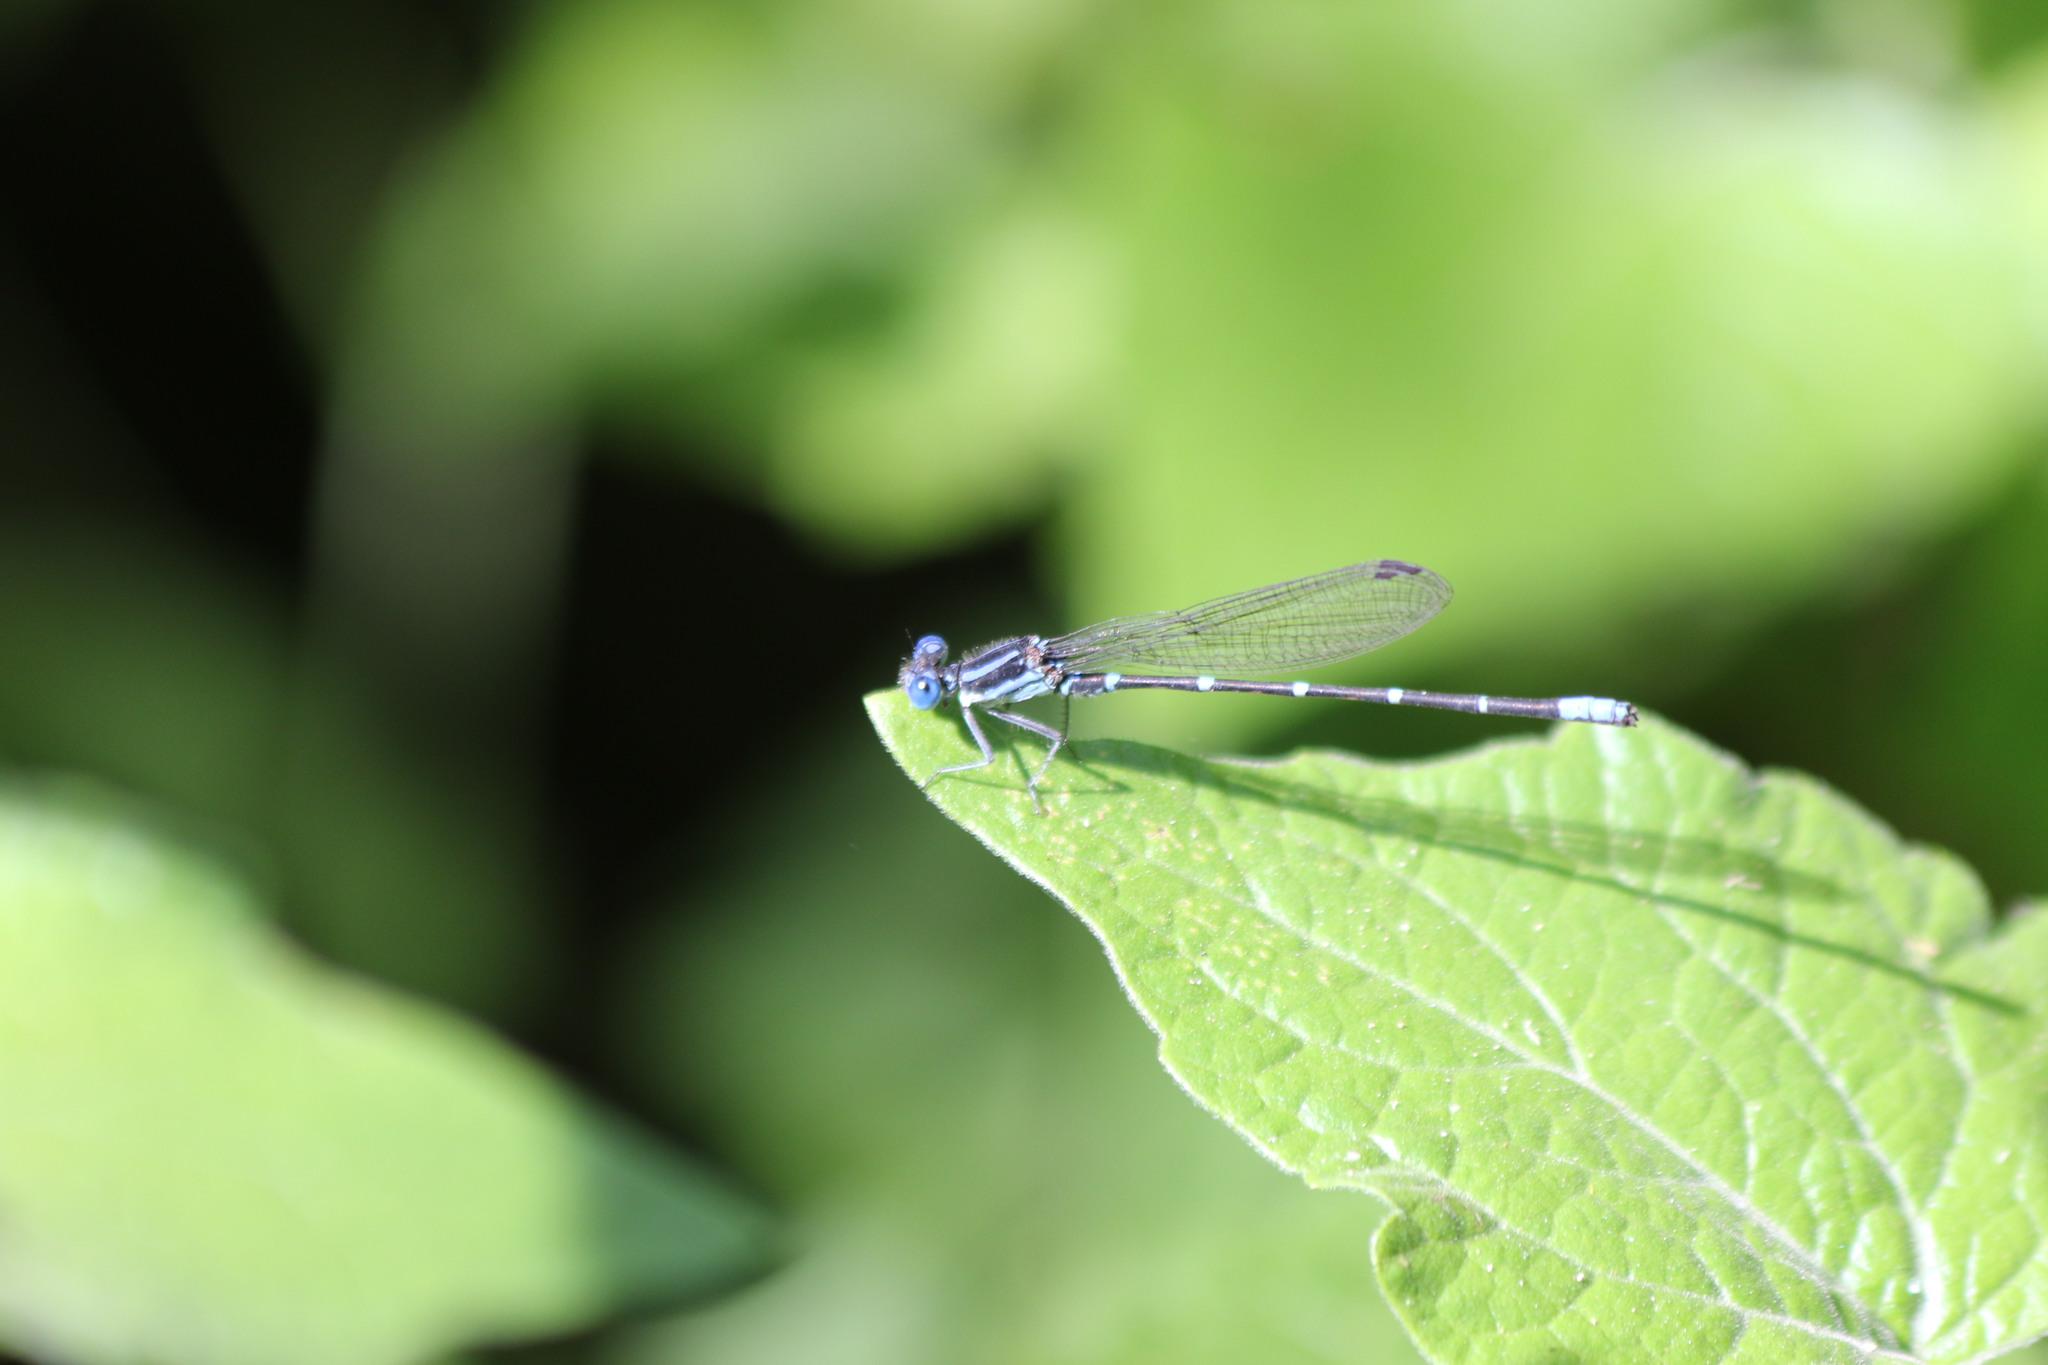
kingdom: Animalia
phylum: Arthropoda
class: Insecta
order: Odonata
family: Coenagrionidae
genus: Argia
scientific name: Argia sedula
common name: Blue-ringed dancer
